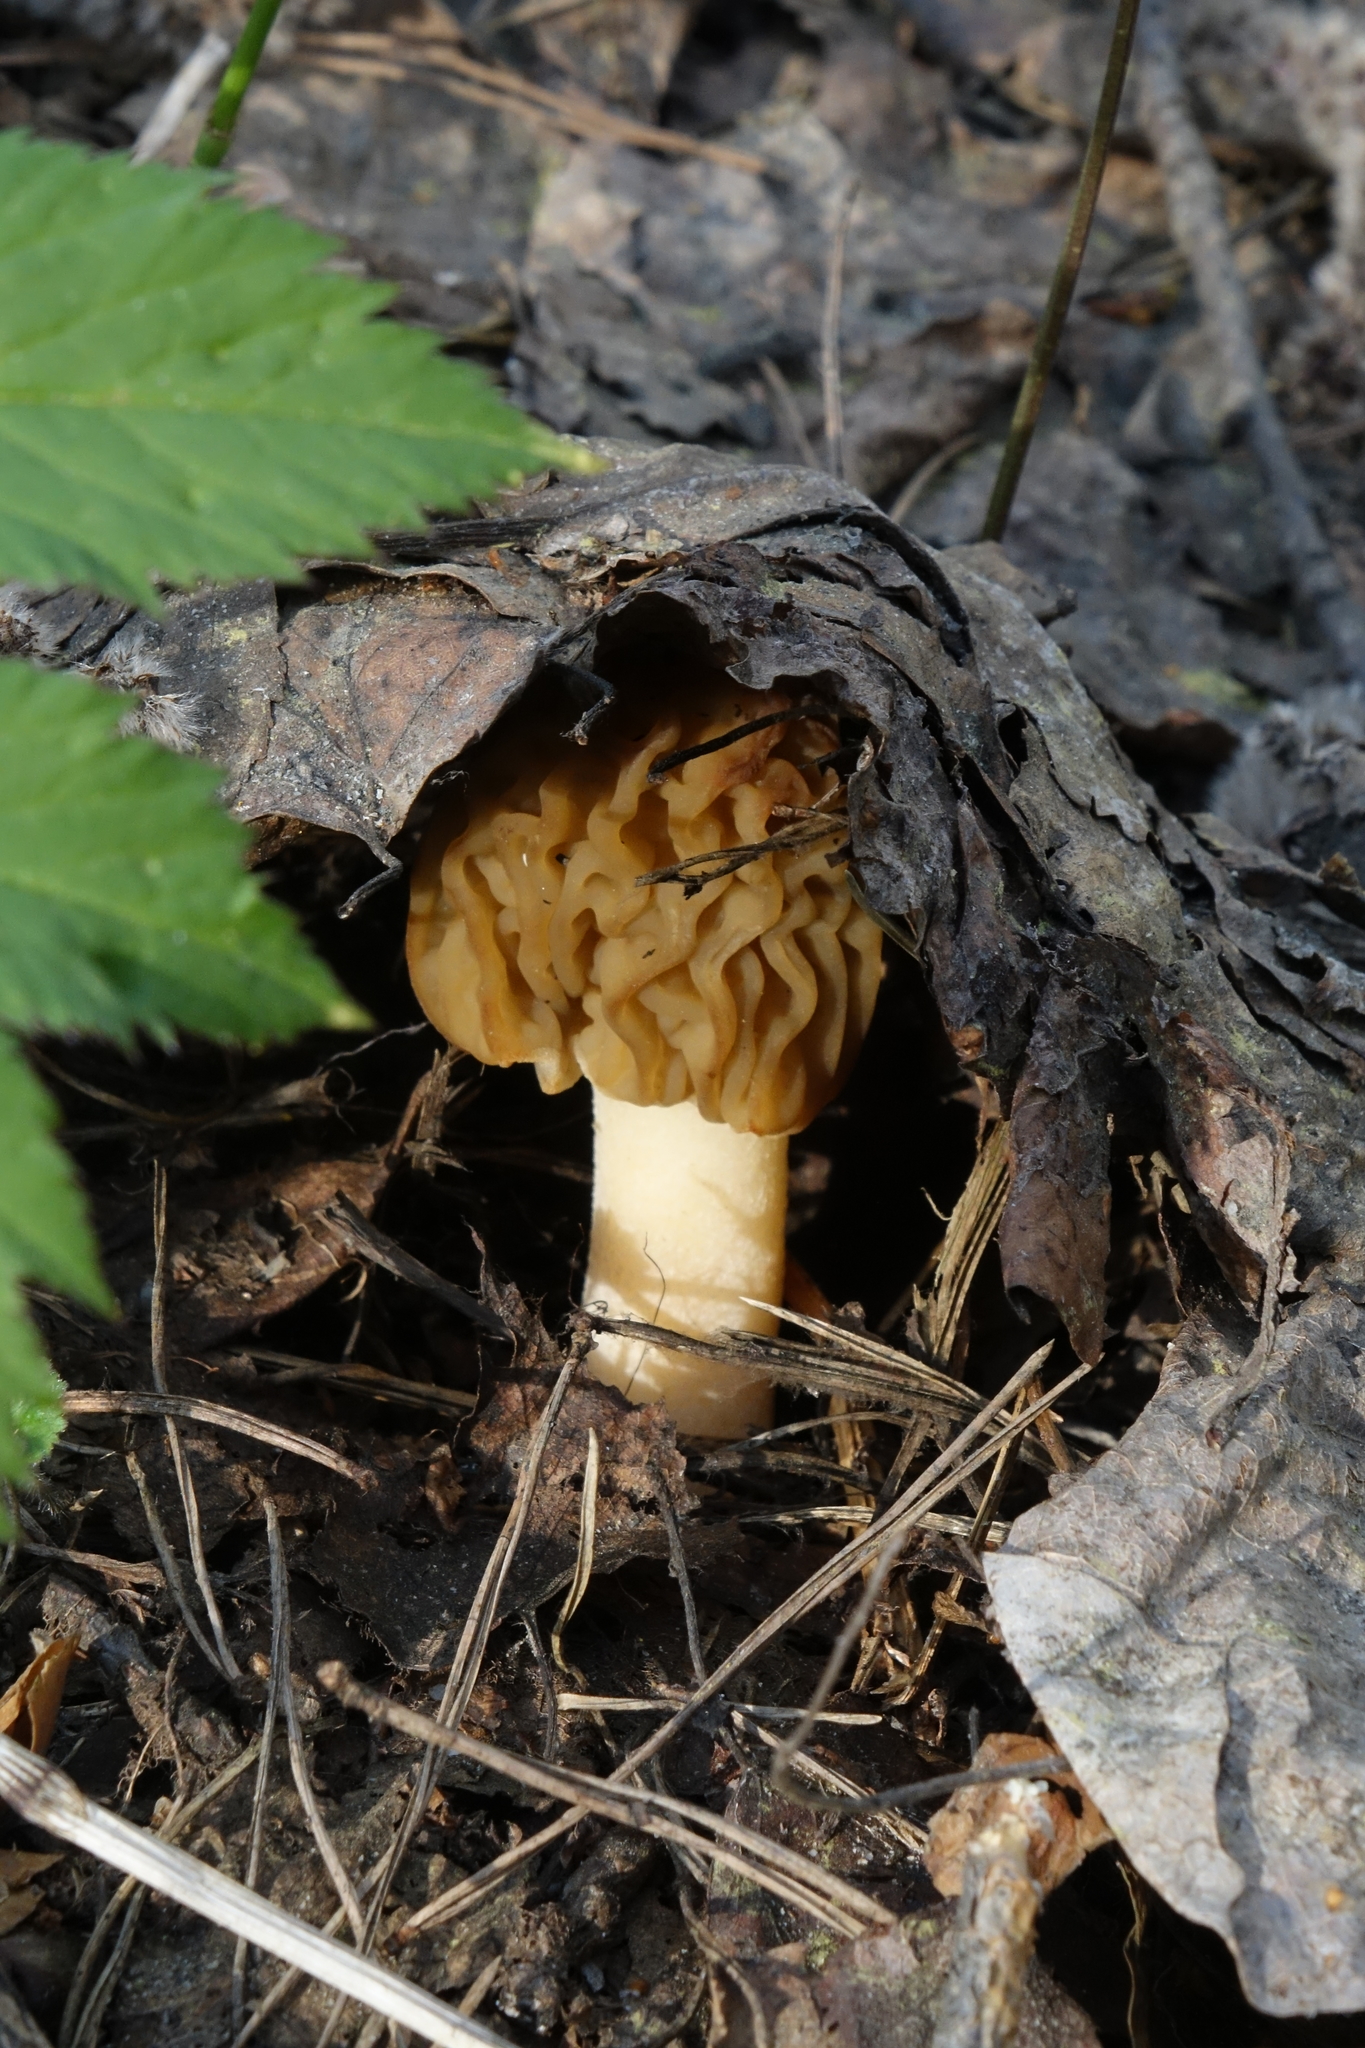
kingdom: Fungi
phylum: Ascomycota
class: Pezizomycetes
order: Pezizales
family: Morchellaceae
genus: Verpa
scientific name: Verpa bohemica
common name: Wrinkled thimble morel
